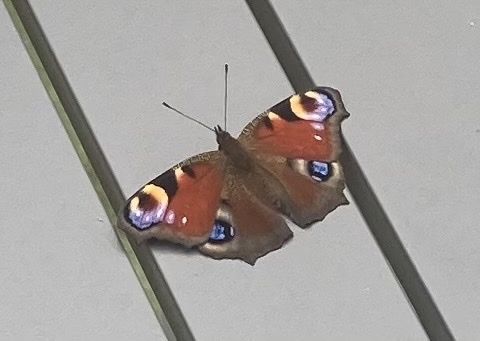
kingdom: Animalia
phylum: Arthropoda
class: Insecta
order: Lepidoptera
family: Nymphalidae
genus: Aglais
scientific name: Aglais io
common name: Peacock
